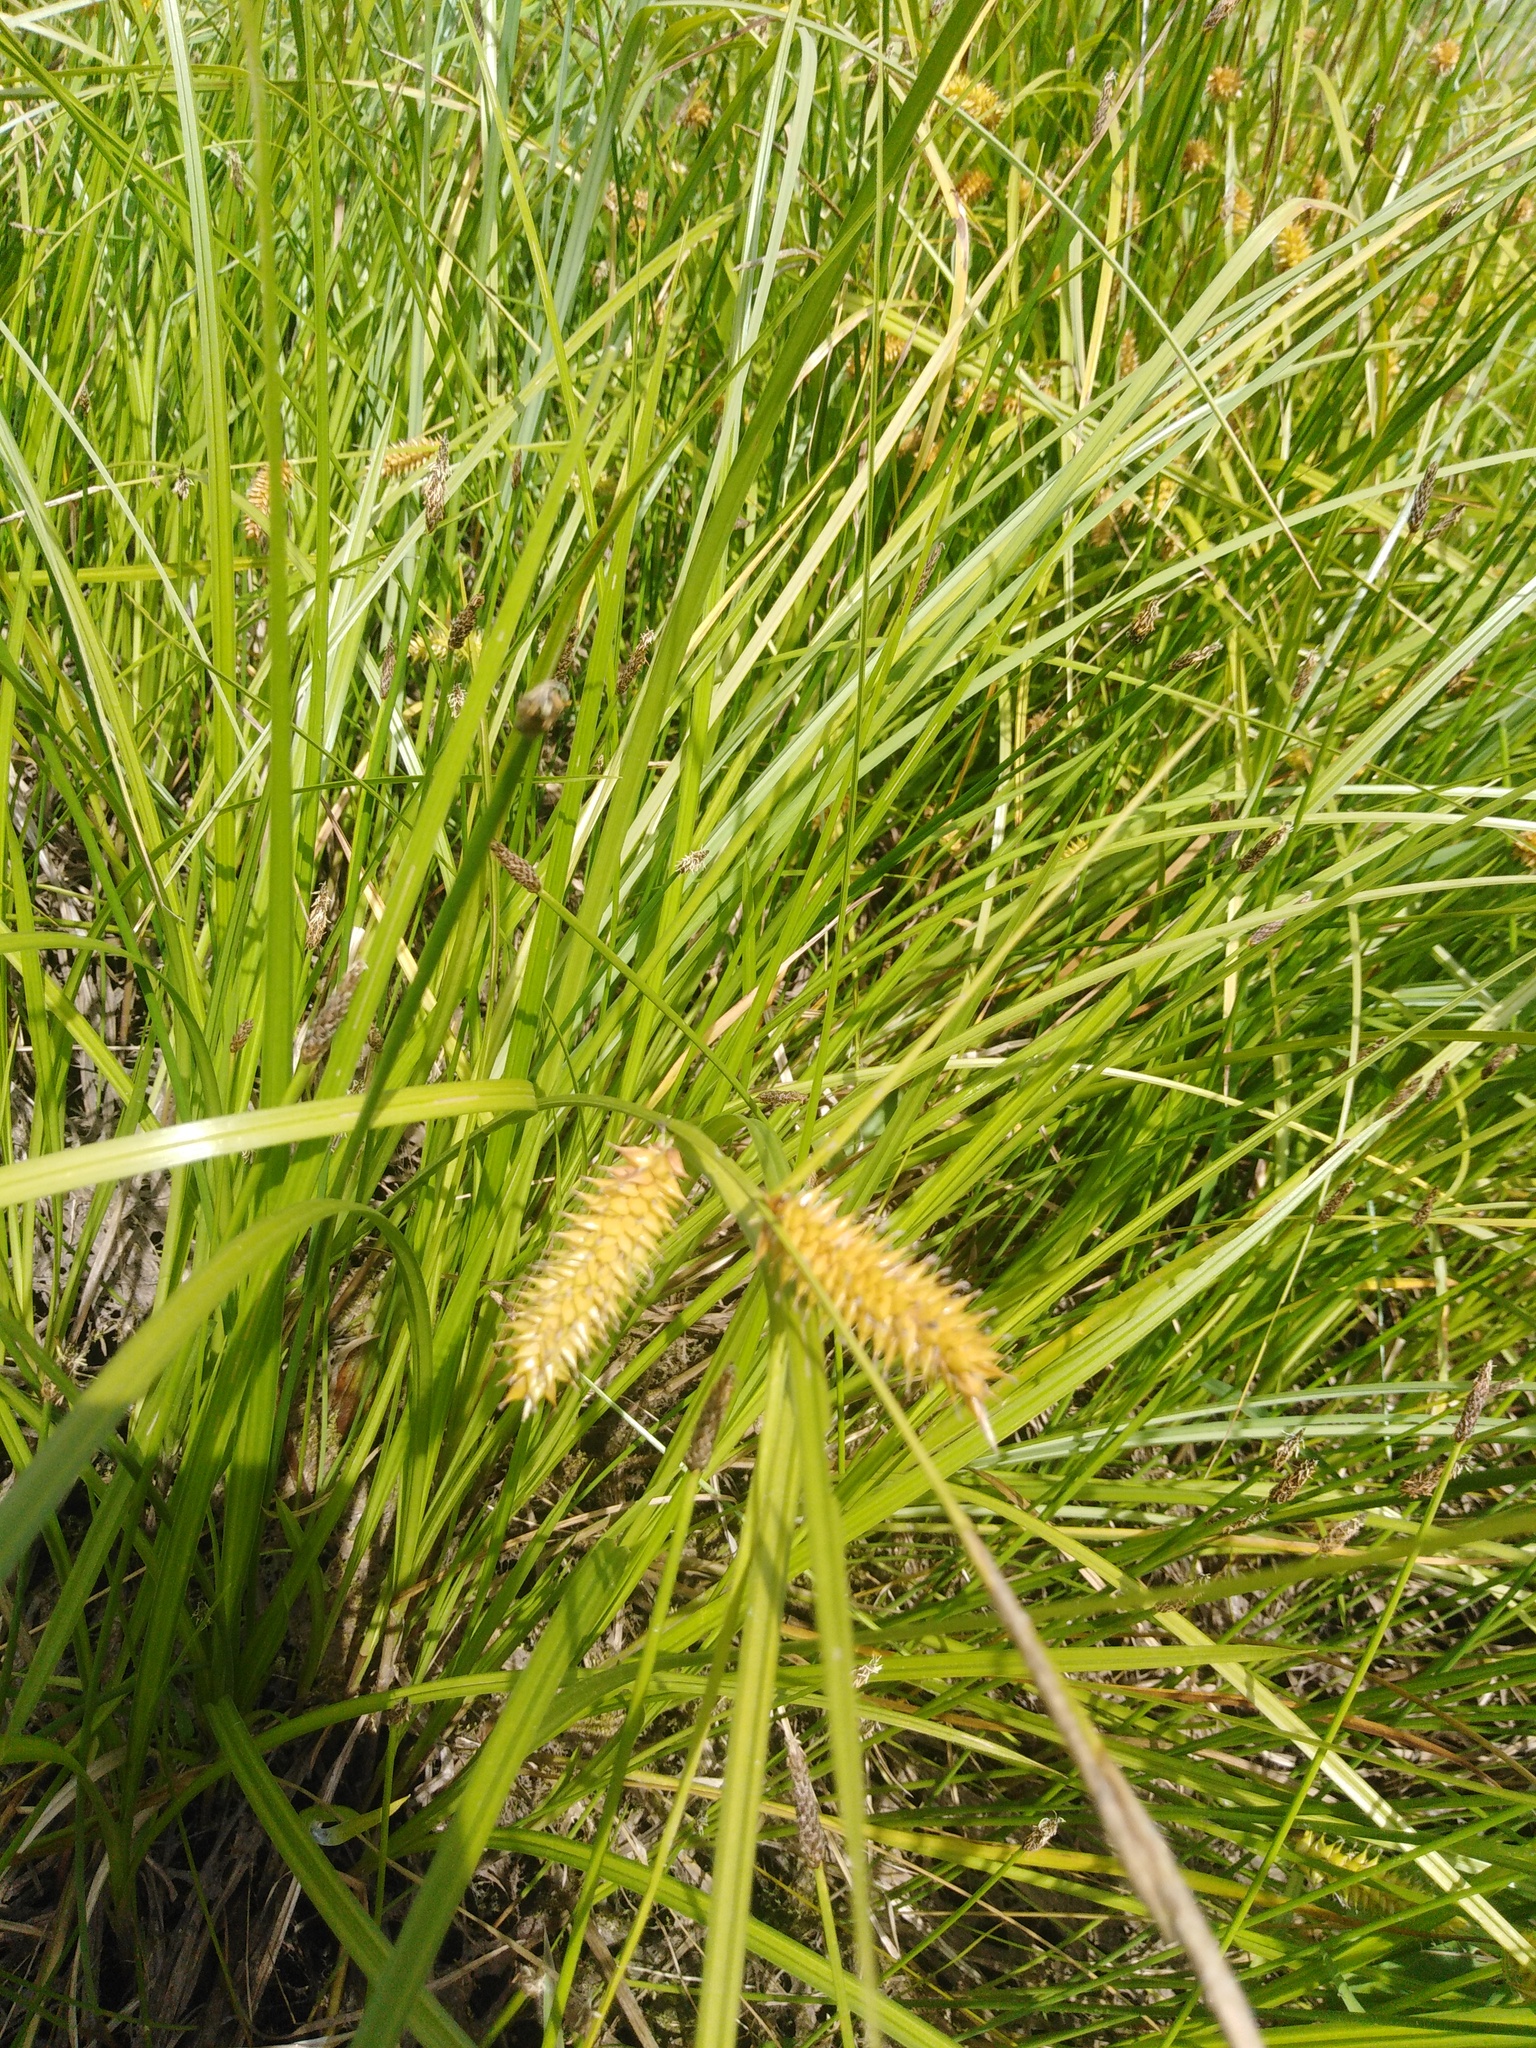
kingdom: Plantae
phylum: Tracheophyta
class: Liliopsida
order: Poales
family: Cyperaceae
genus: Carex
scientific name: Carex vesicaria
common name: Bladder-sedge
